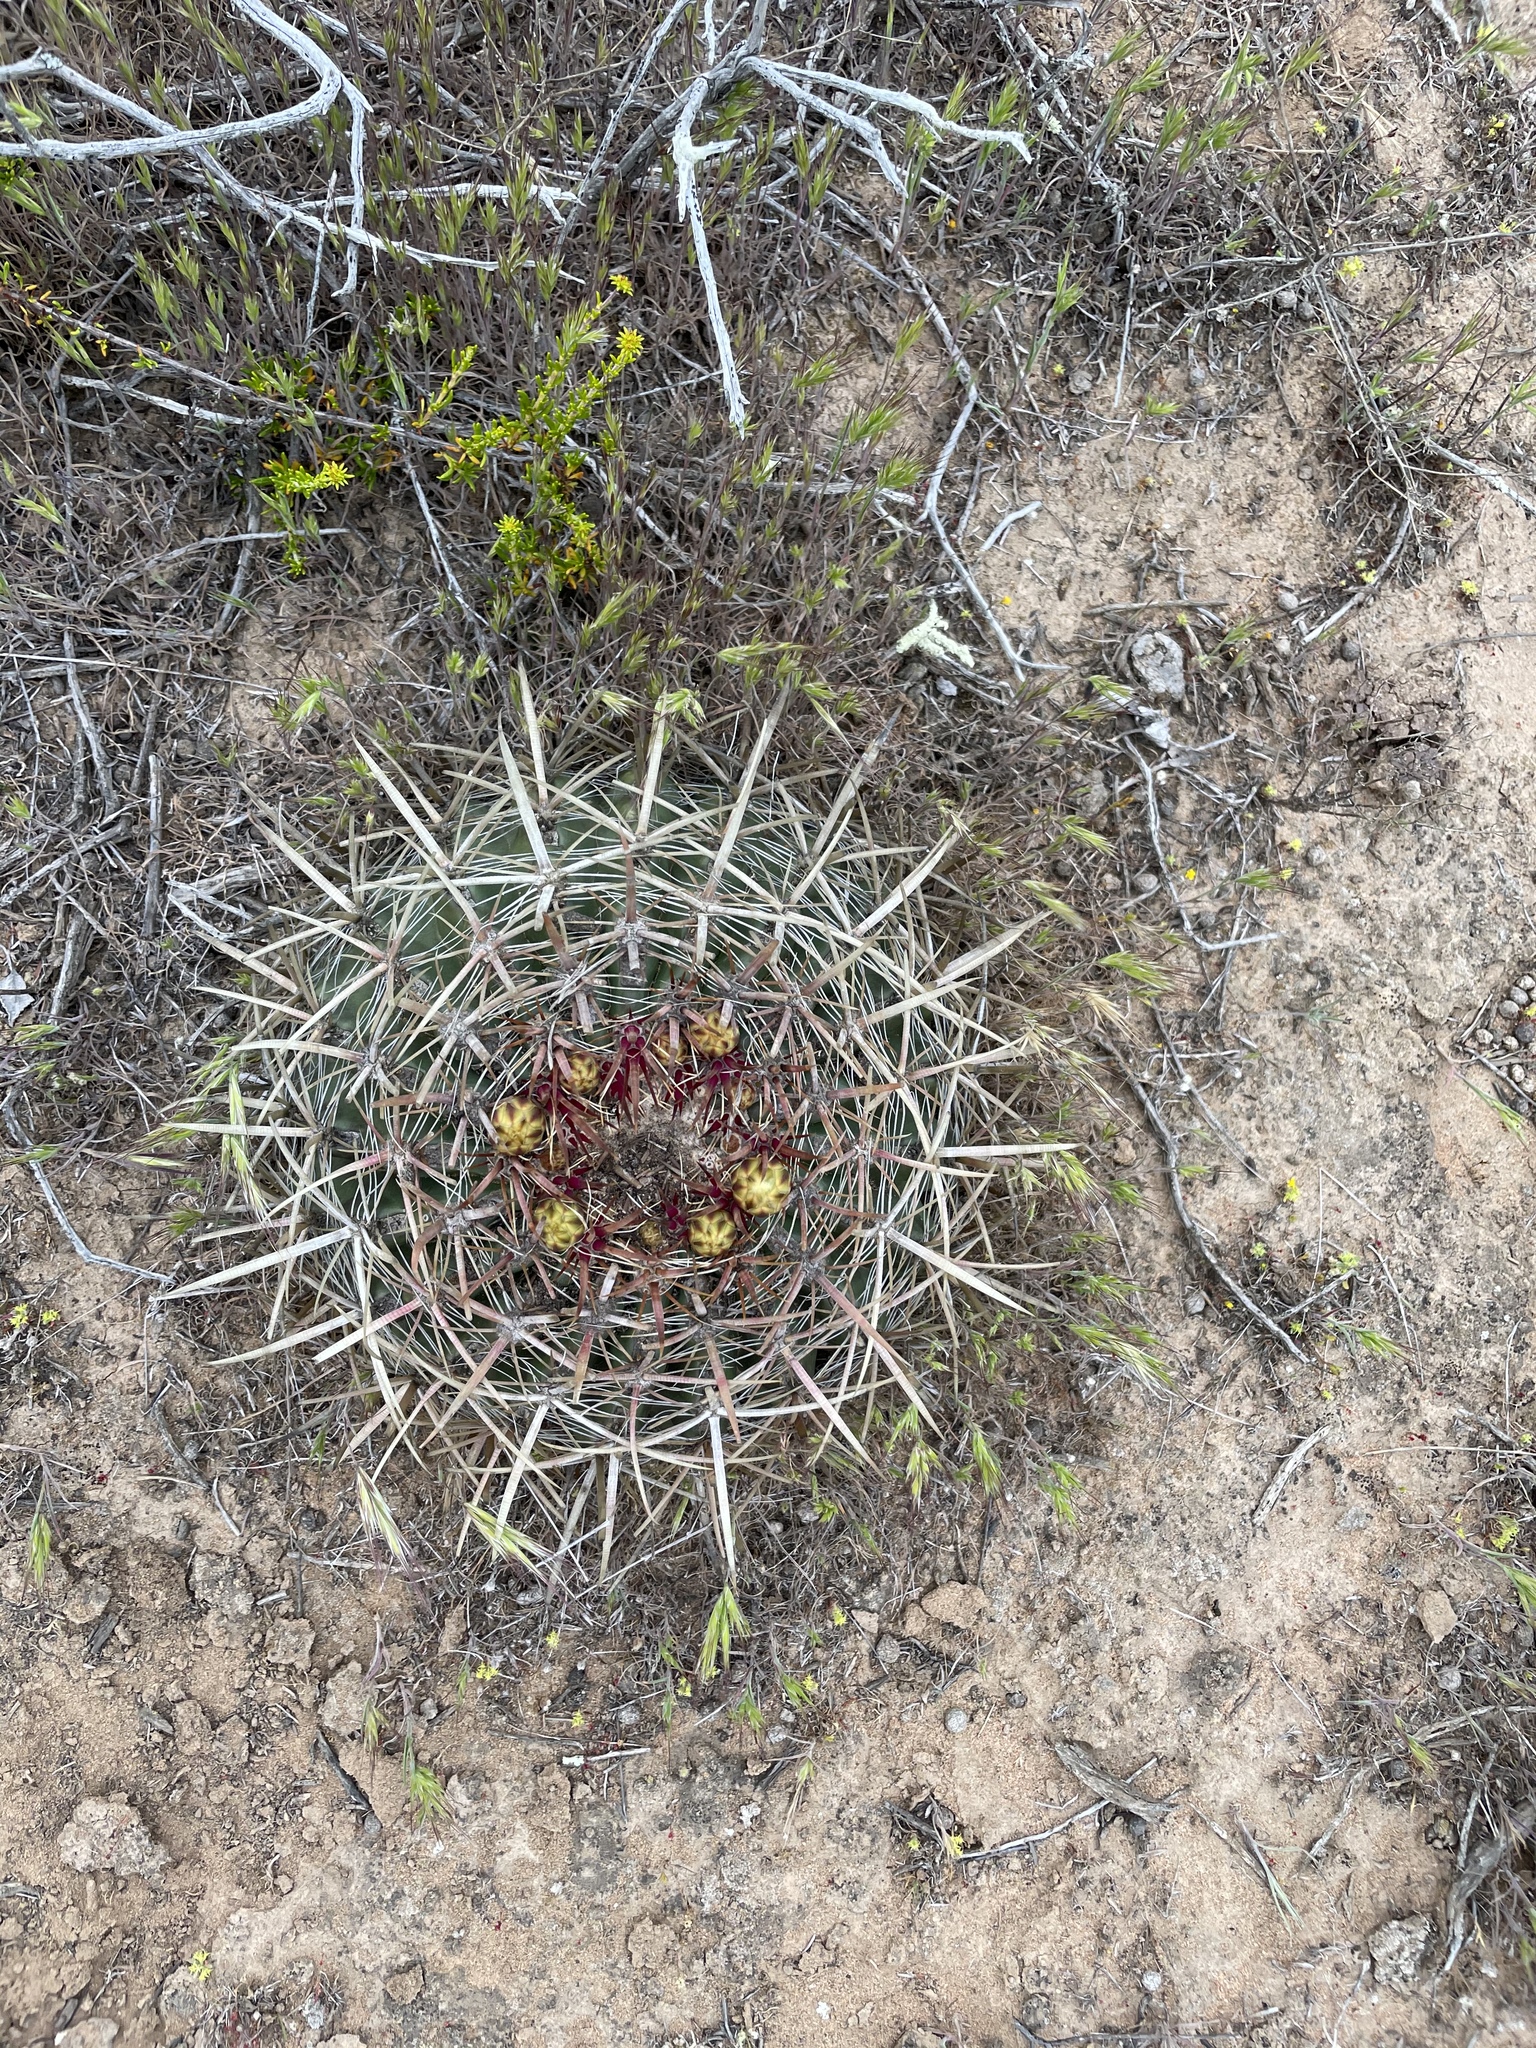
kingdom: Plantae
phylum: Tracheophyta
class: Magnoliopsida
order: Caryophyllales
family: Cactaceae
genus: Ferocactus
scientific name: Ferocactus viridescens
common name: San diego barrel cactus
